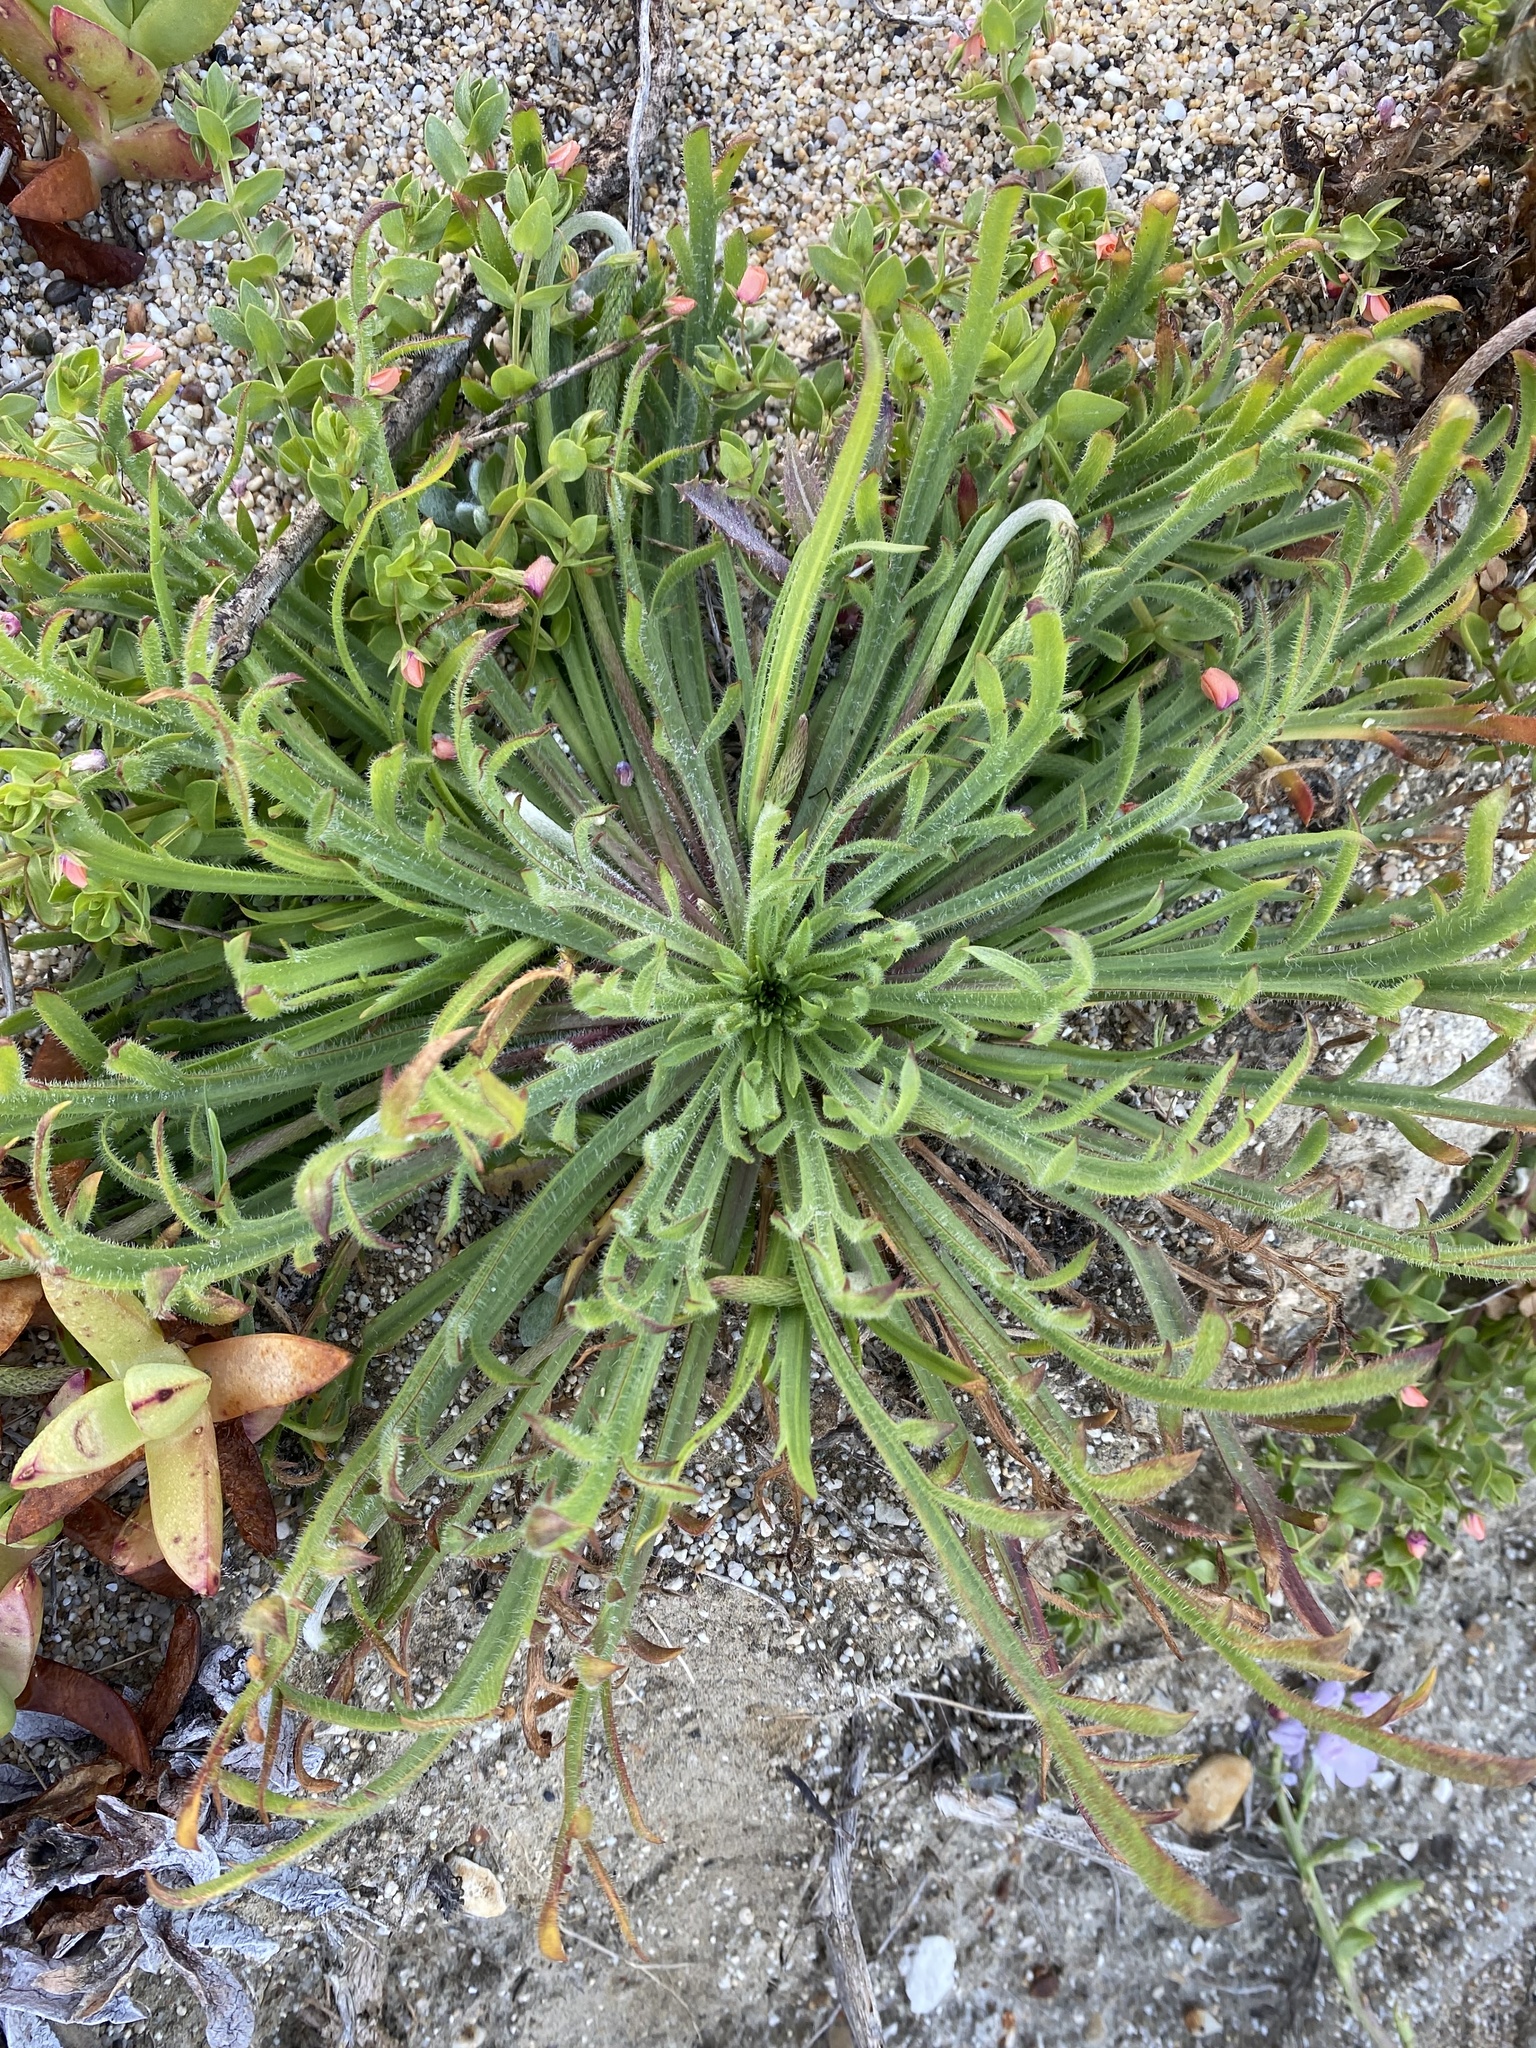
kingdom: Plantae
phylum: Tracheophyta
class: Magnoliopsida
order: Lamiales
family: Plantaginaceae
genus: Plantago
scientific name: Plantago coronopus
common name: Buck's-horn plantain
